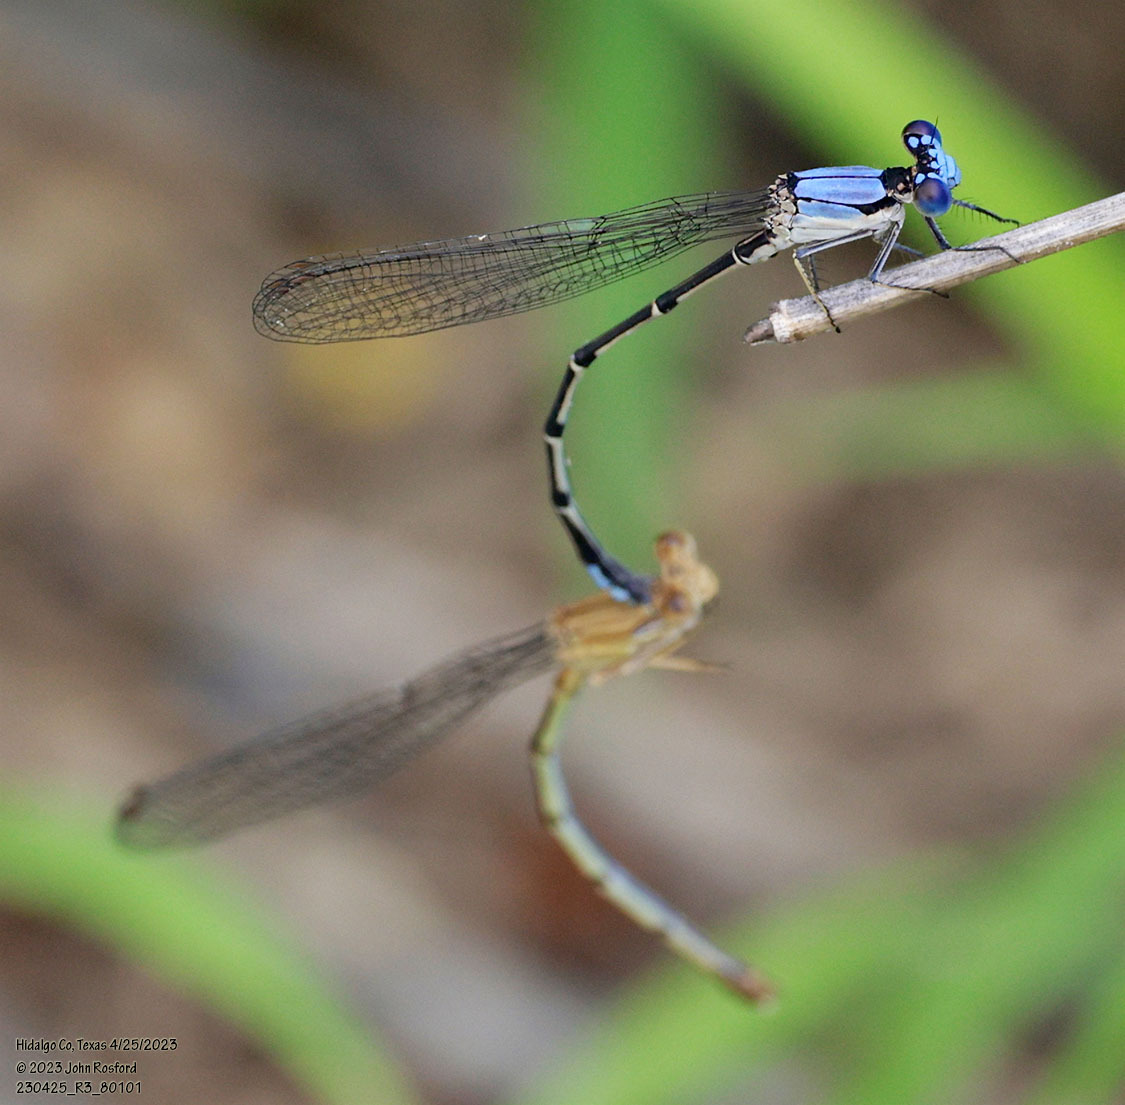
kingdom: Animalia
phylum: Arthropoda
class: Insecta
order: Odonata
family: Coenagrionidae
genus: Argia
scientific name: Argia apicalis
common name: Blue-fronted dancer
